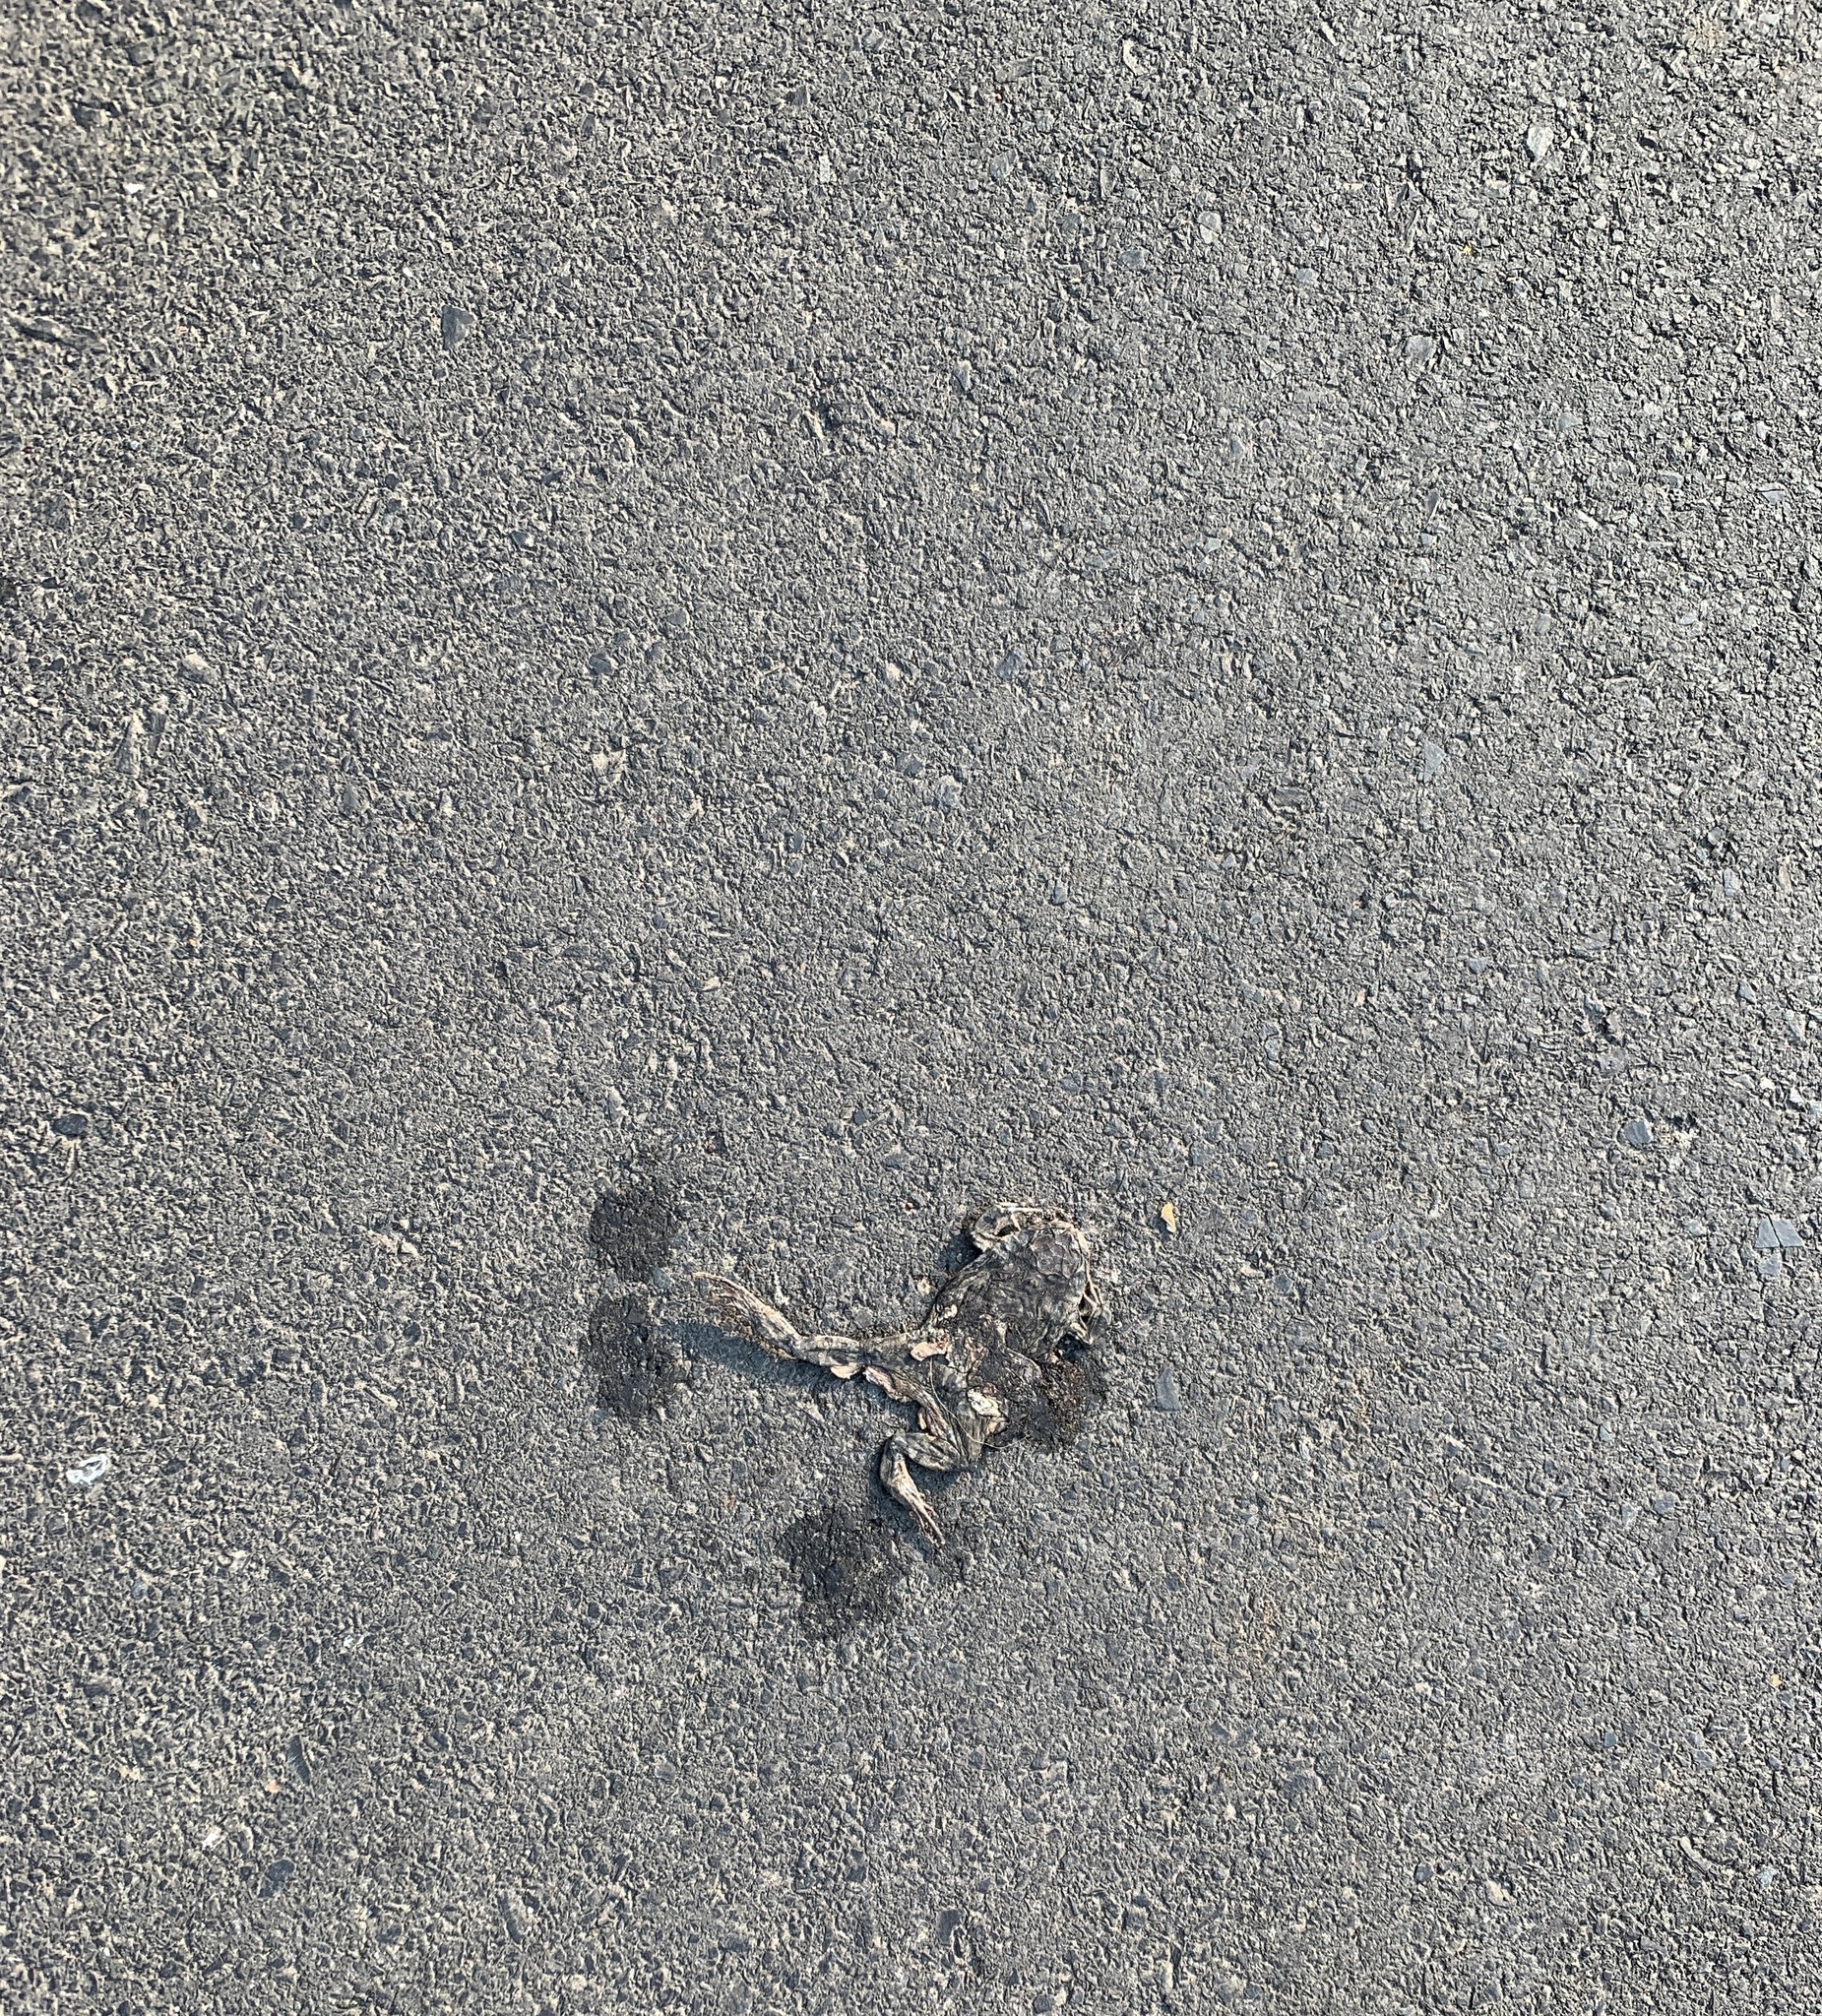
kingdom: Animalia
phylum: Chordata
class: Amphibia
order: Anura
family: Bufonidae
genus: Sclerophrys
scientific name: Sclerophrys capensis
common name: Ranger’s toad
